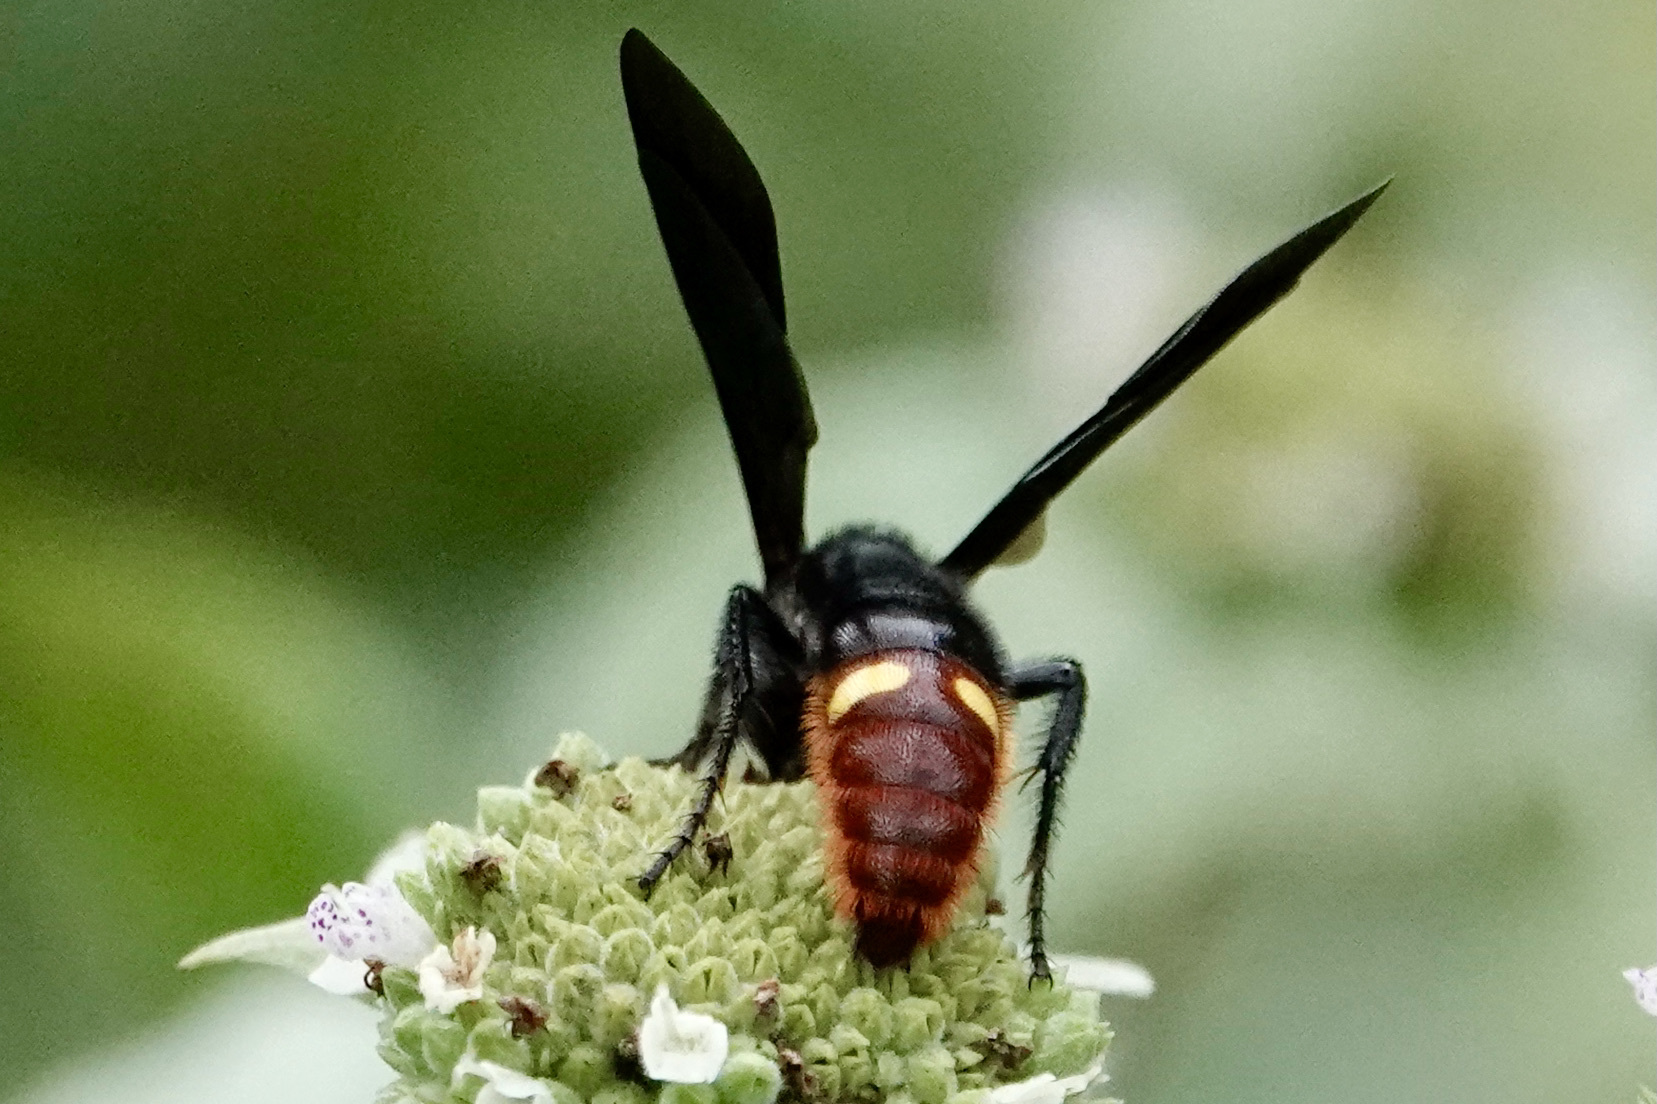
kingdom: Animalia
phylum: Arthropoda
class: Insecta
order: Hymenoptera
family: Scoliidae
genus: Scolia
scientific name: Scolia dubia
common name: Blue-winged scoliid wasp
